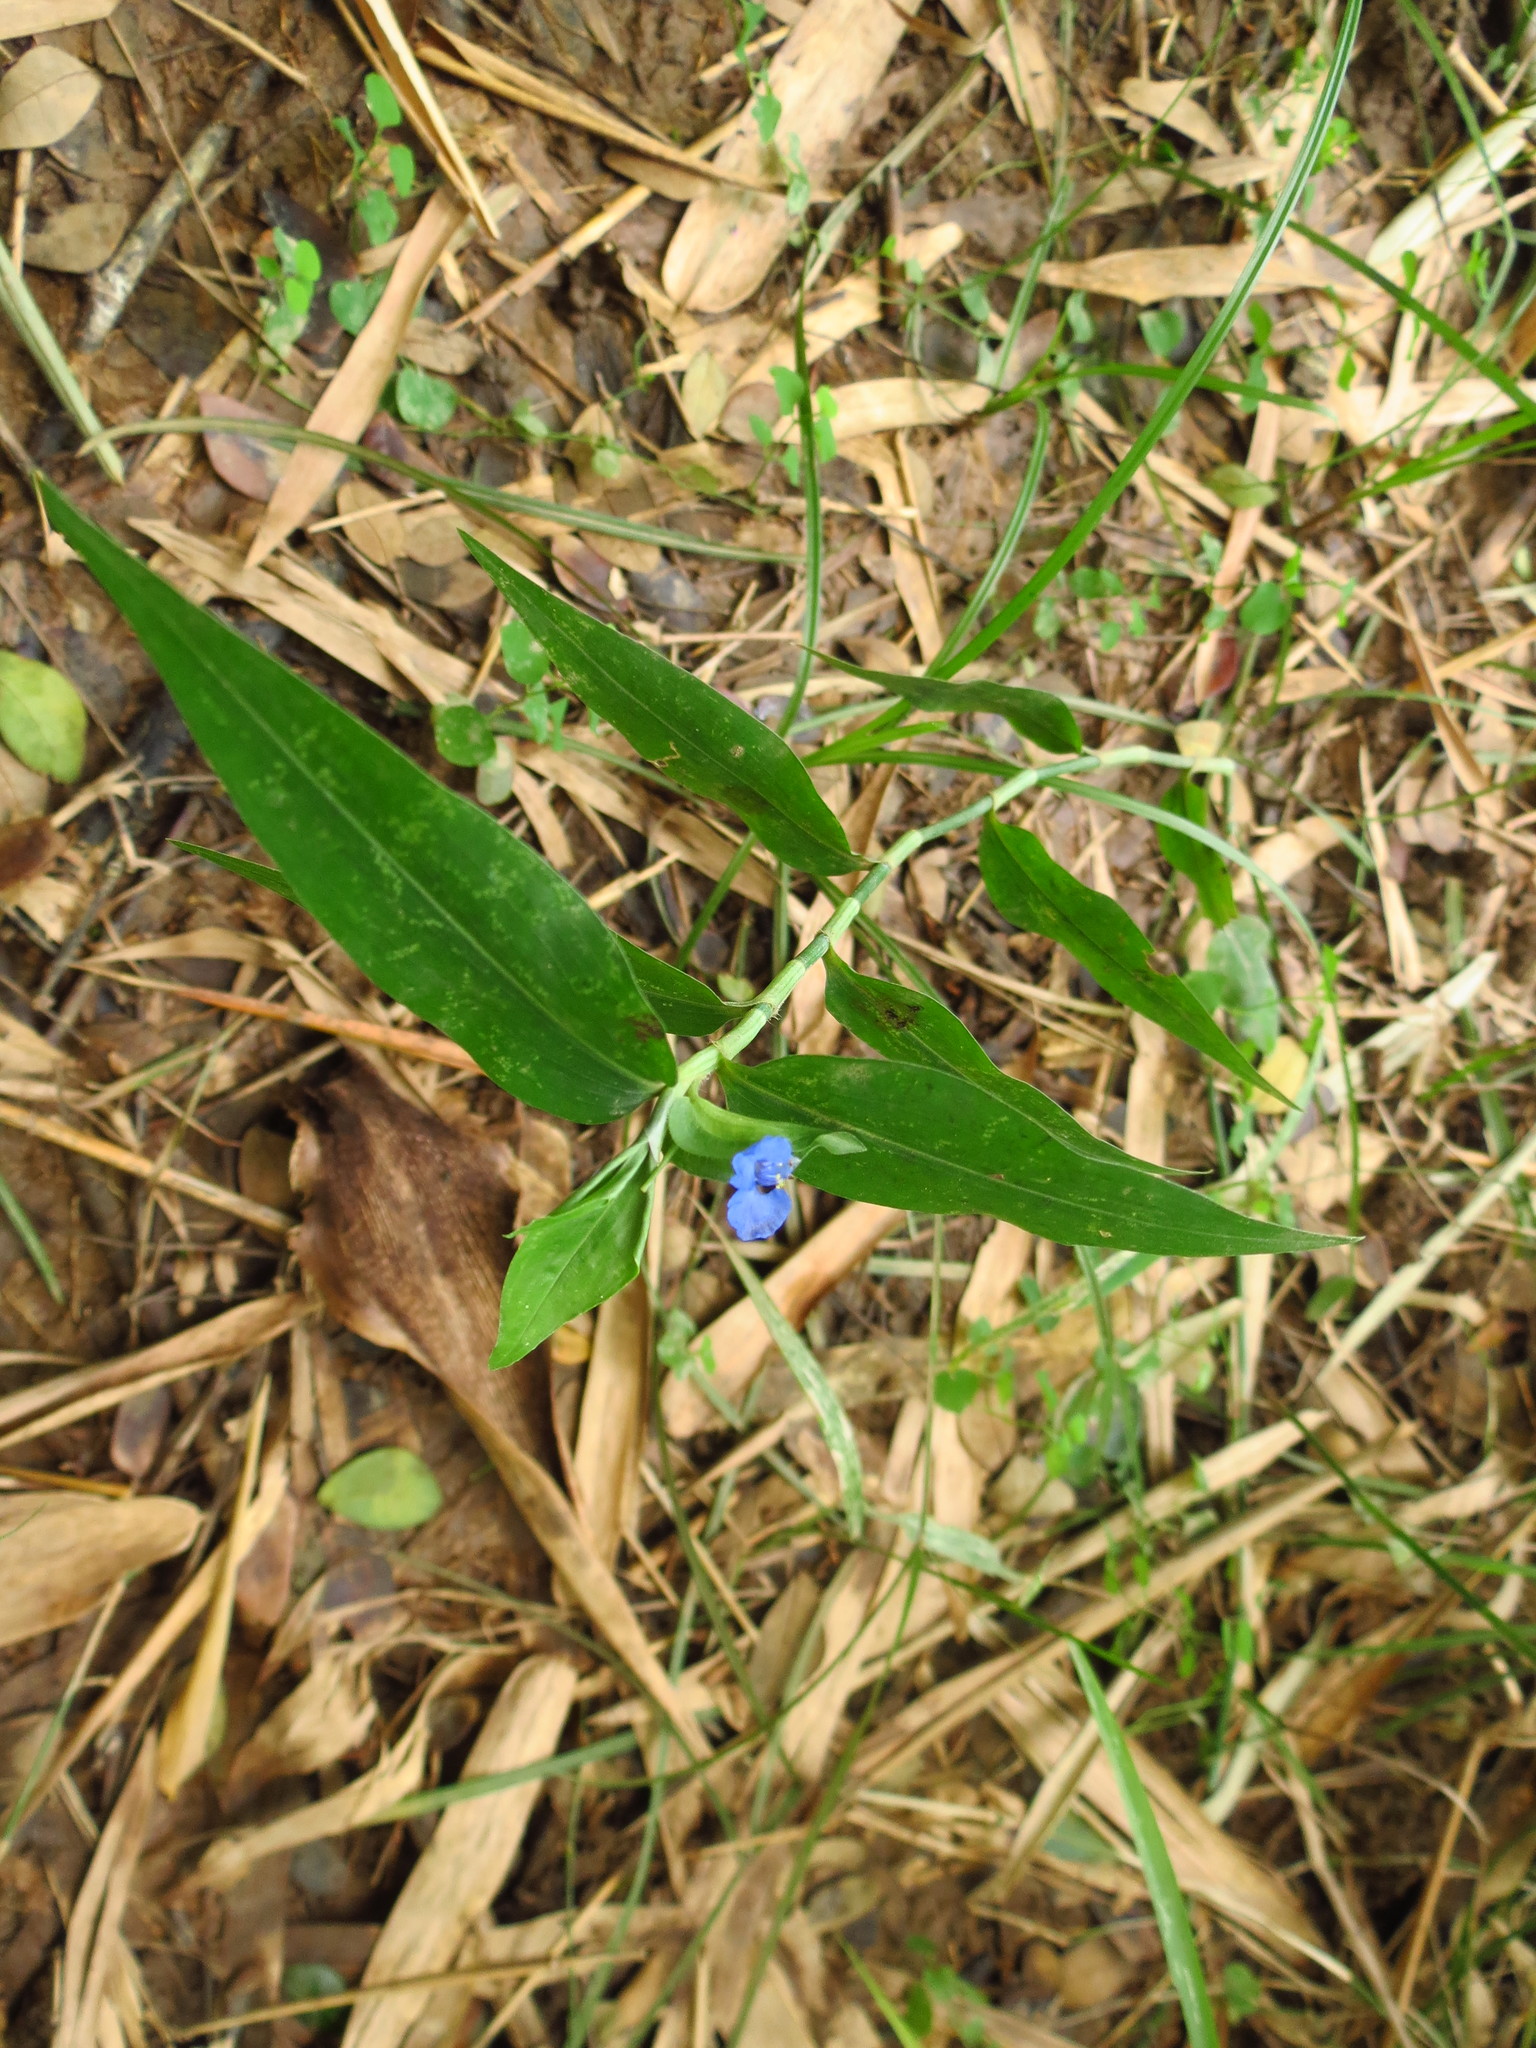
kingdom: Plantae
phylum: Tracheophyta
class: Liliopsida
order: Commelinales
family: Commelinaceae
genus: Commelina
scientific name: Commelina diffusa
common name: Climbing dayflower
